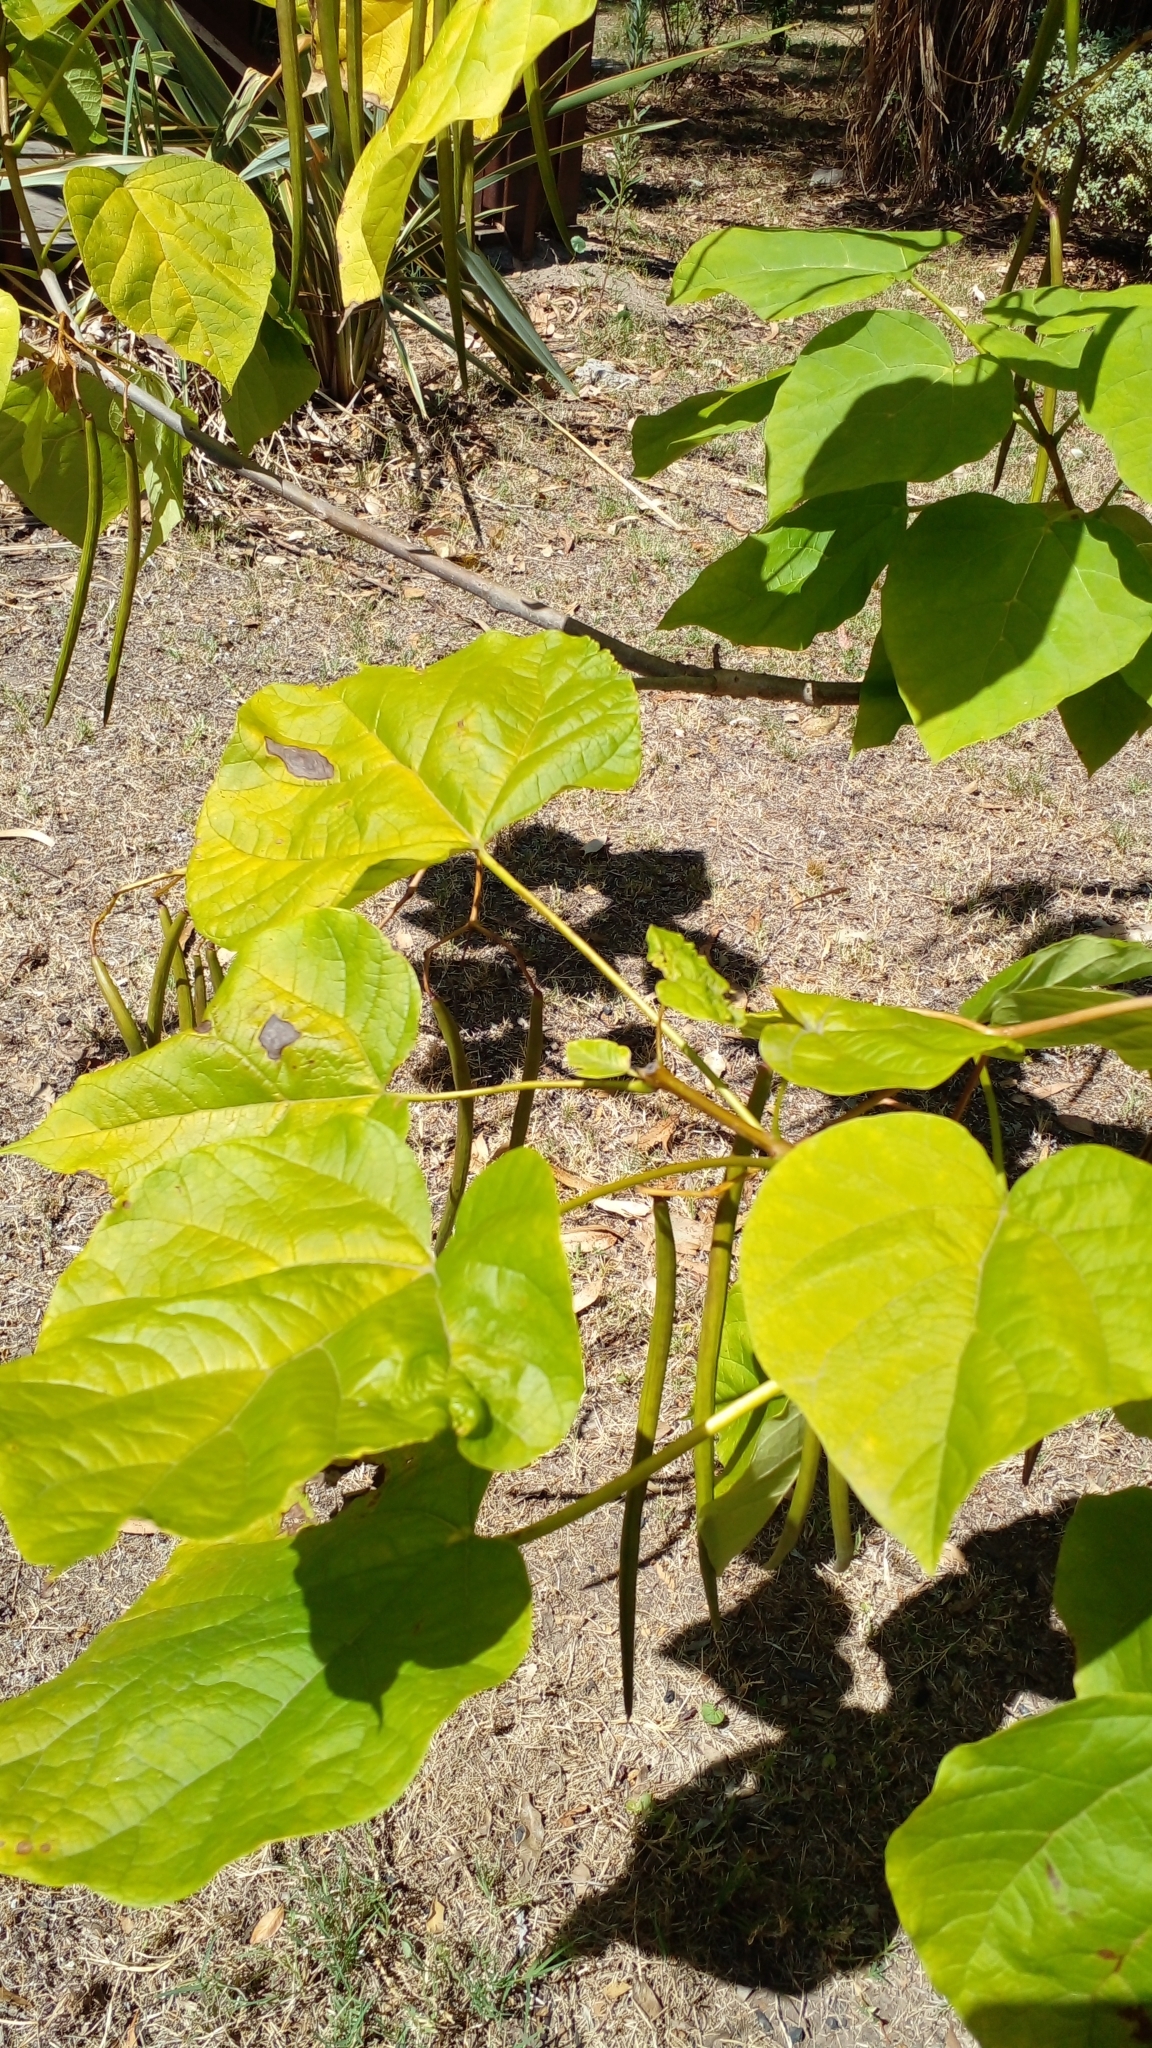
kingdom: Plantae
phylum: Tracheophyta
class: Magnoliopsida
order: Lamiales
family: Bignoniaceae
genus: Catalpa
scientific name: Catalpa bignonioides
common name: Southern catalpa
